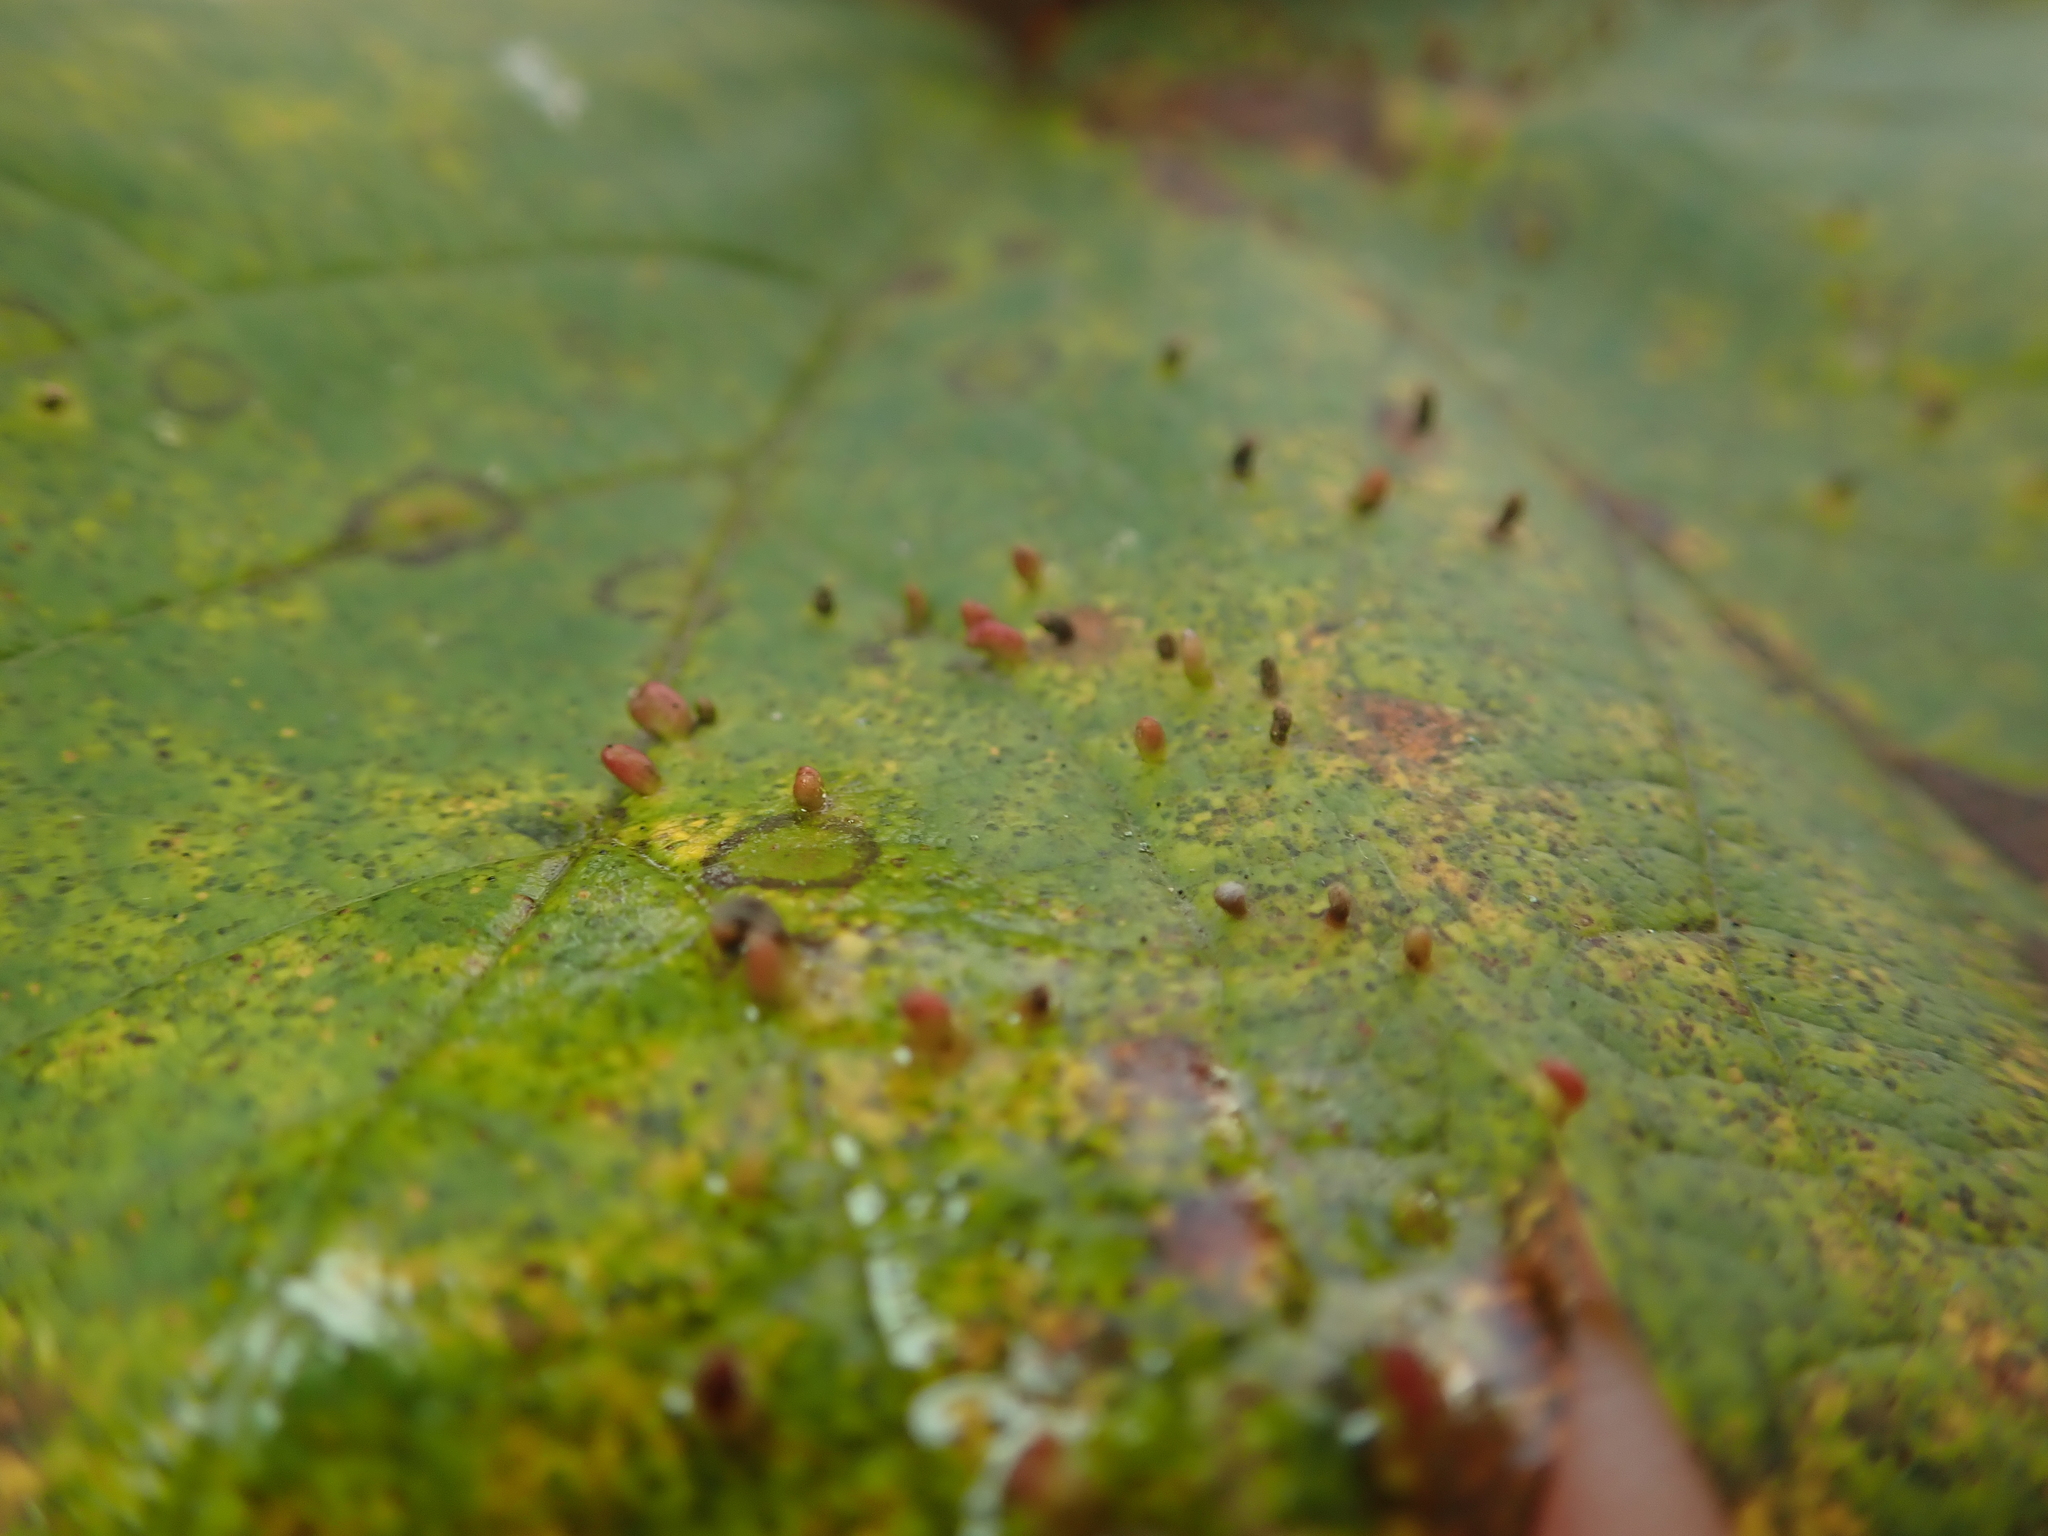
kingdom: Animalia
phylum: Arthropoda
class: Arachnida
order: Trombidiformes
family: Eriophyidae
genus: Aceria
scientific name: Aceria cephaloneus
